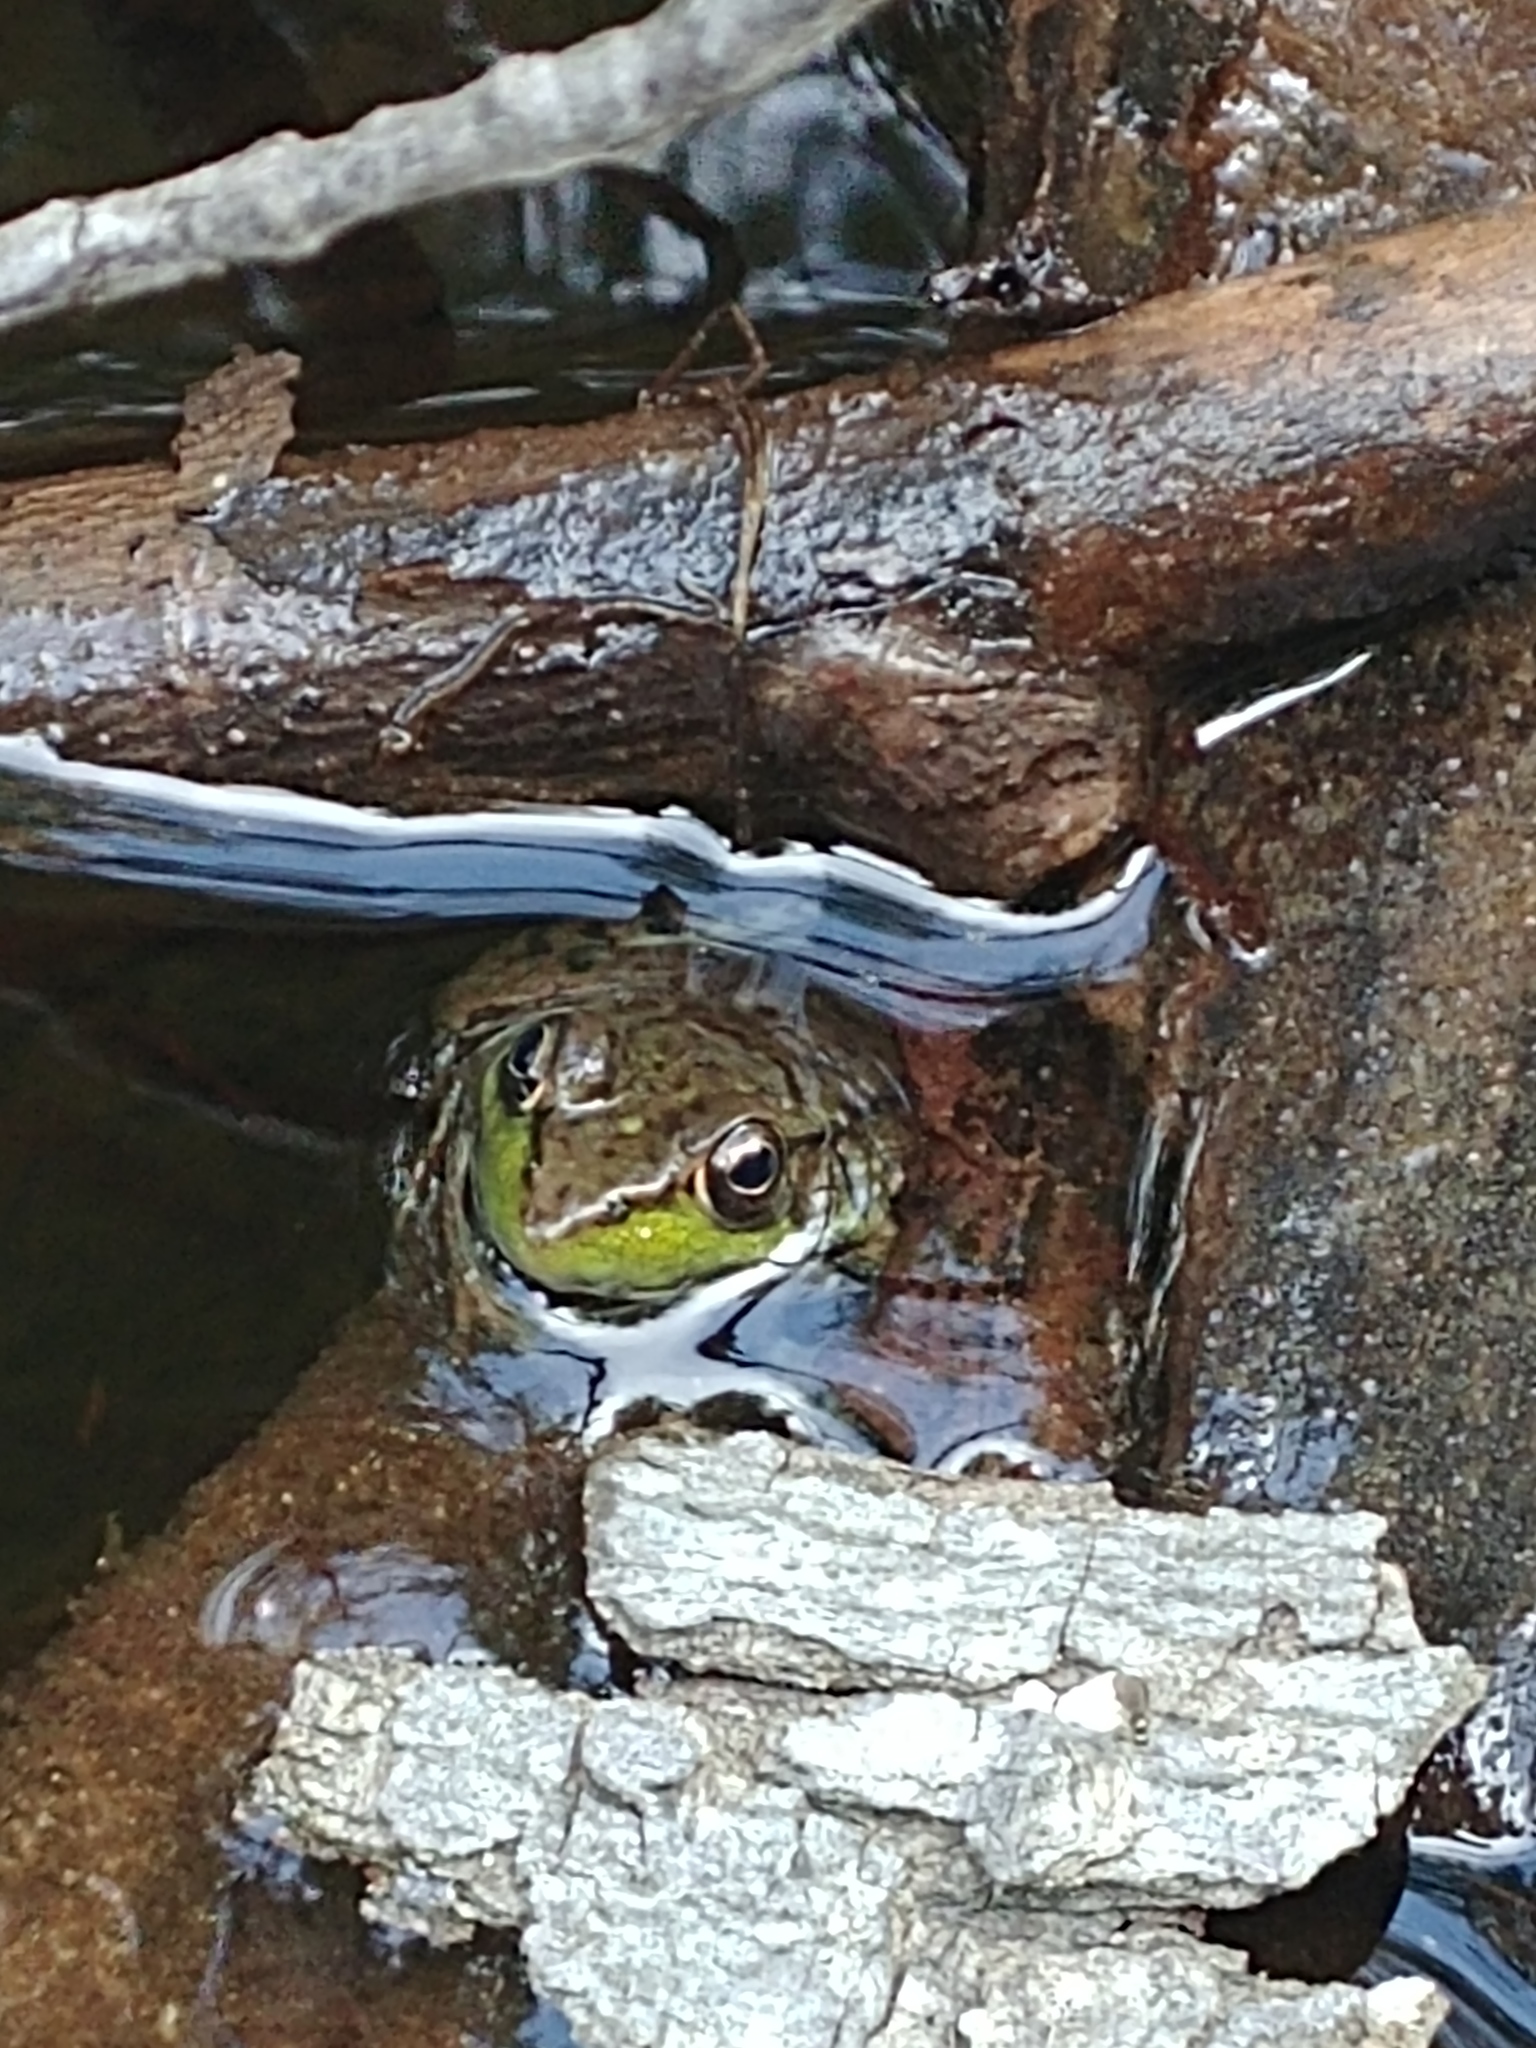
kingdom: Animalia
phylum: Chordata
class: Amphibia
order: Anura
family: Ranidae
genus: Lithobates
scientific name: Lithobates clamitans
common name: Green frog
